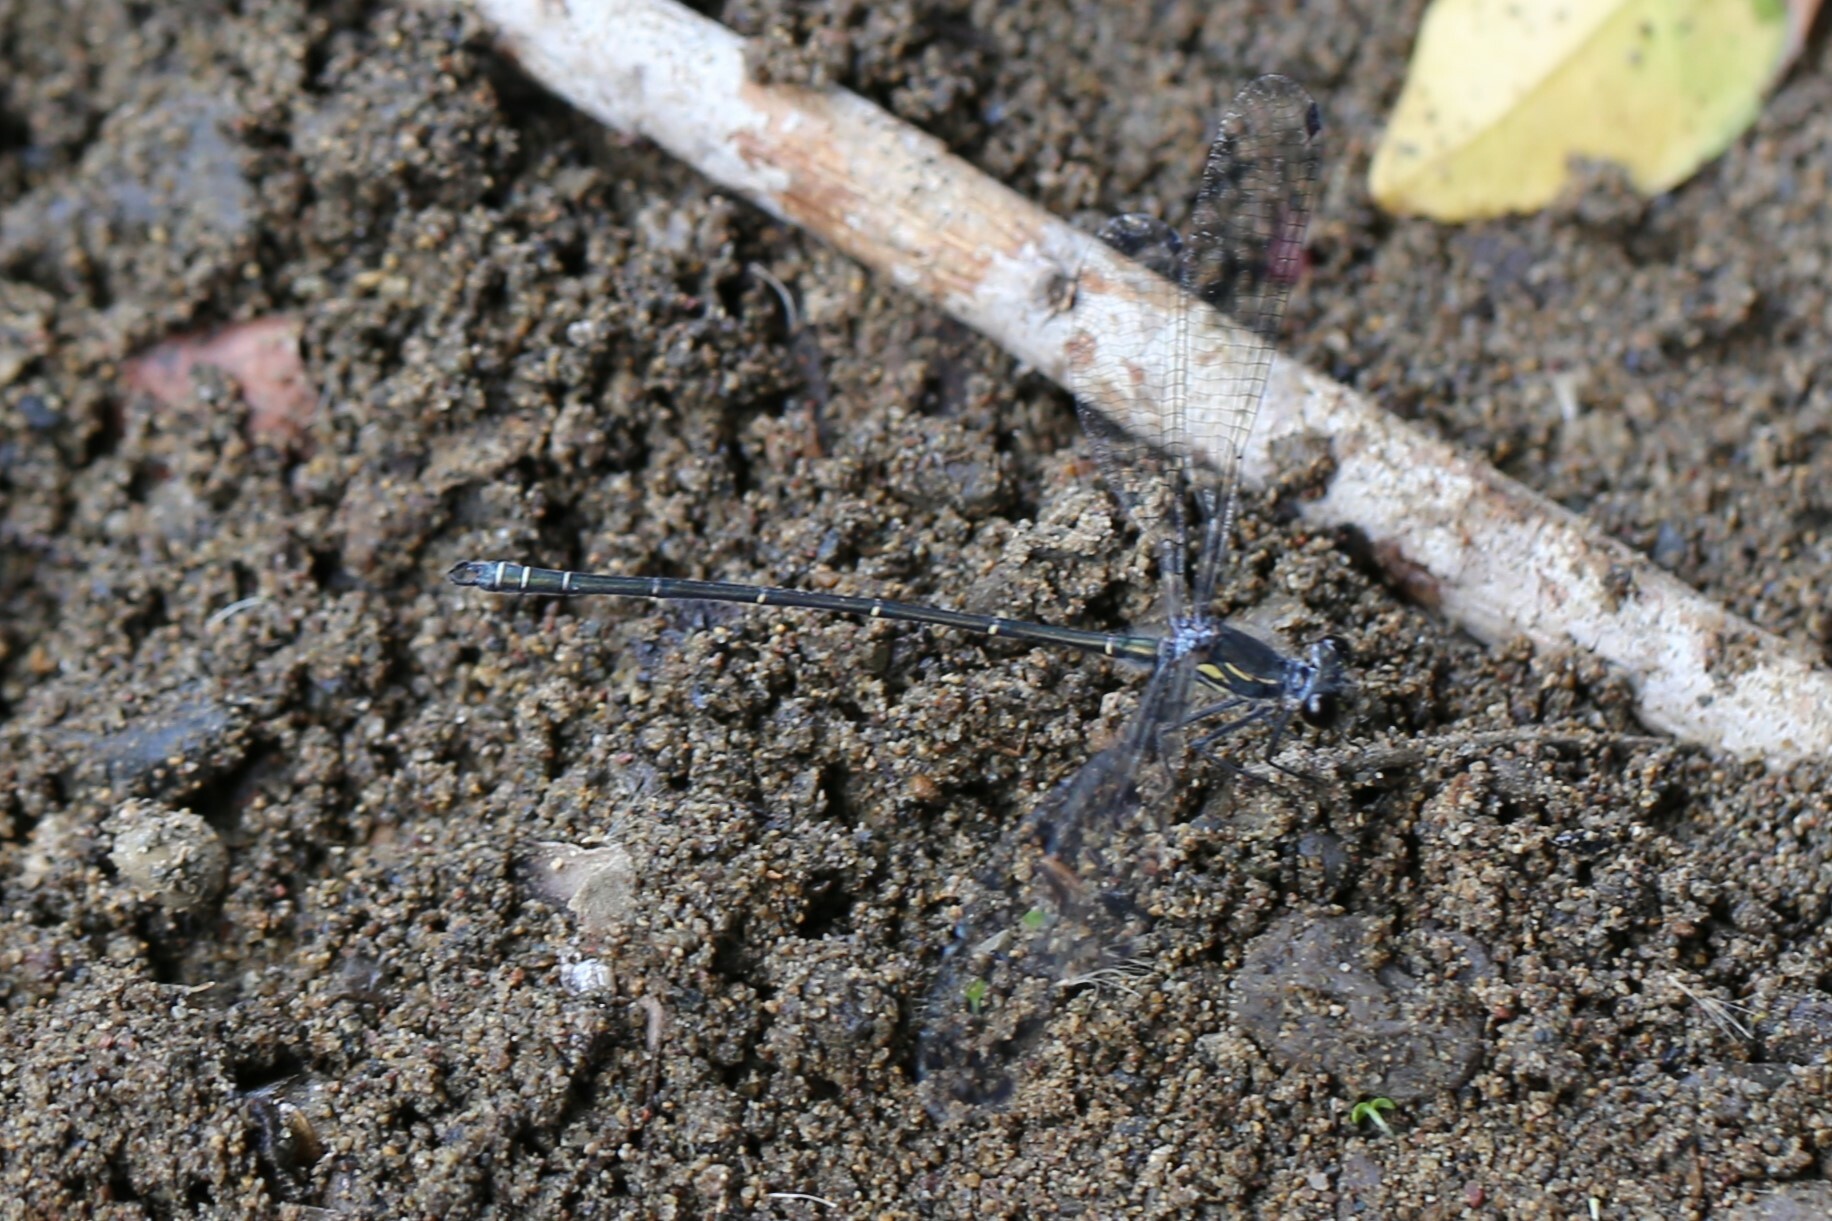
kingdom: Animalia
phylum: Arthropoda
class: Insecta
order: Odonata
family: Argiolestidae
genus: Austroargiolestes
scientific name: Austroargiolestes icteromelas
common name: Common flatwing
